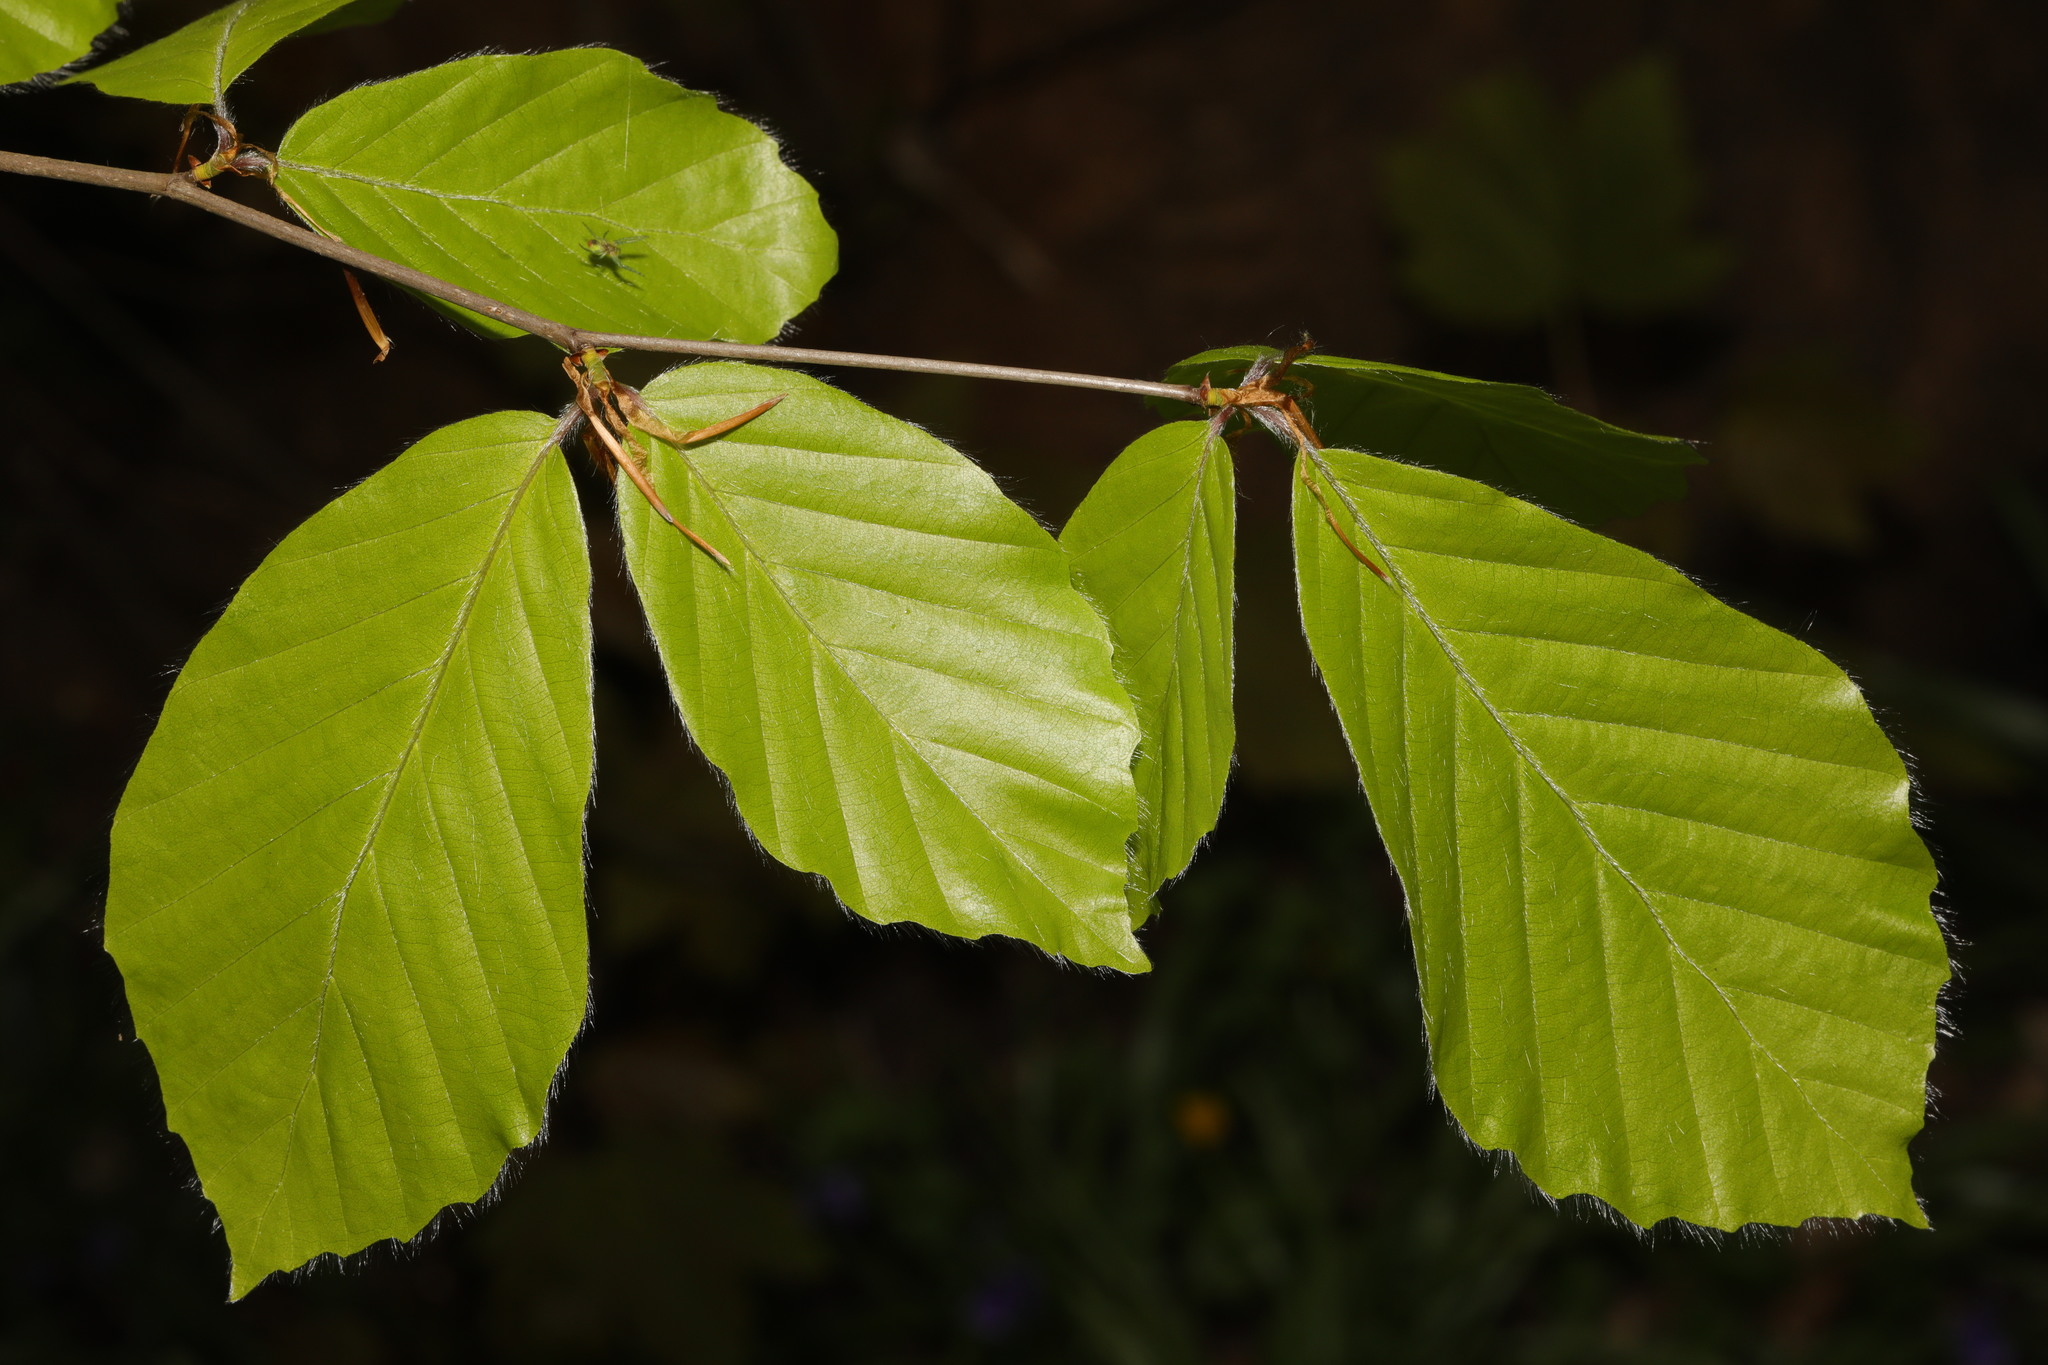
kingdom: Plantae
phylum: Tracheophyta
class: Magnoliopsida
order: Fagales
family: Fagaceae
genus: Fagus
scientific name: Fagus sylvatica
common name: Beech
